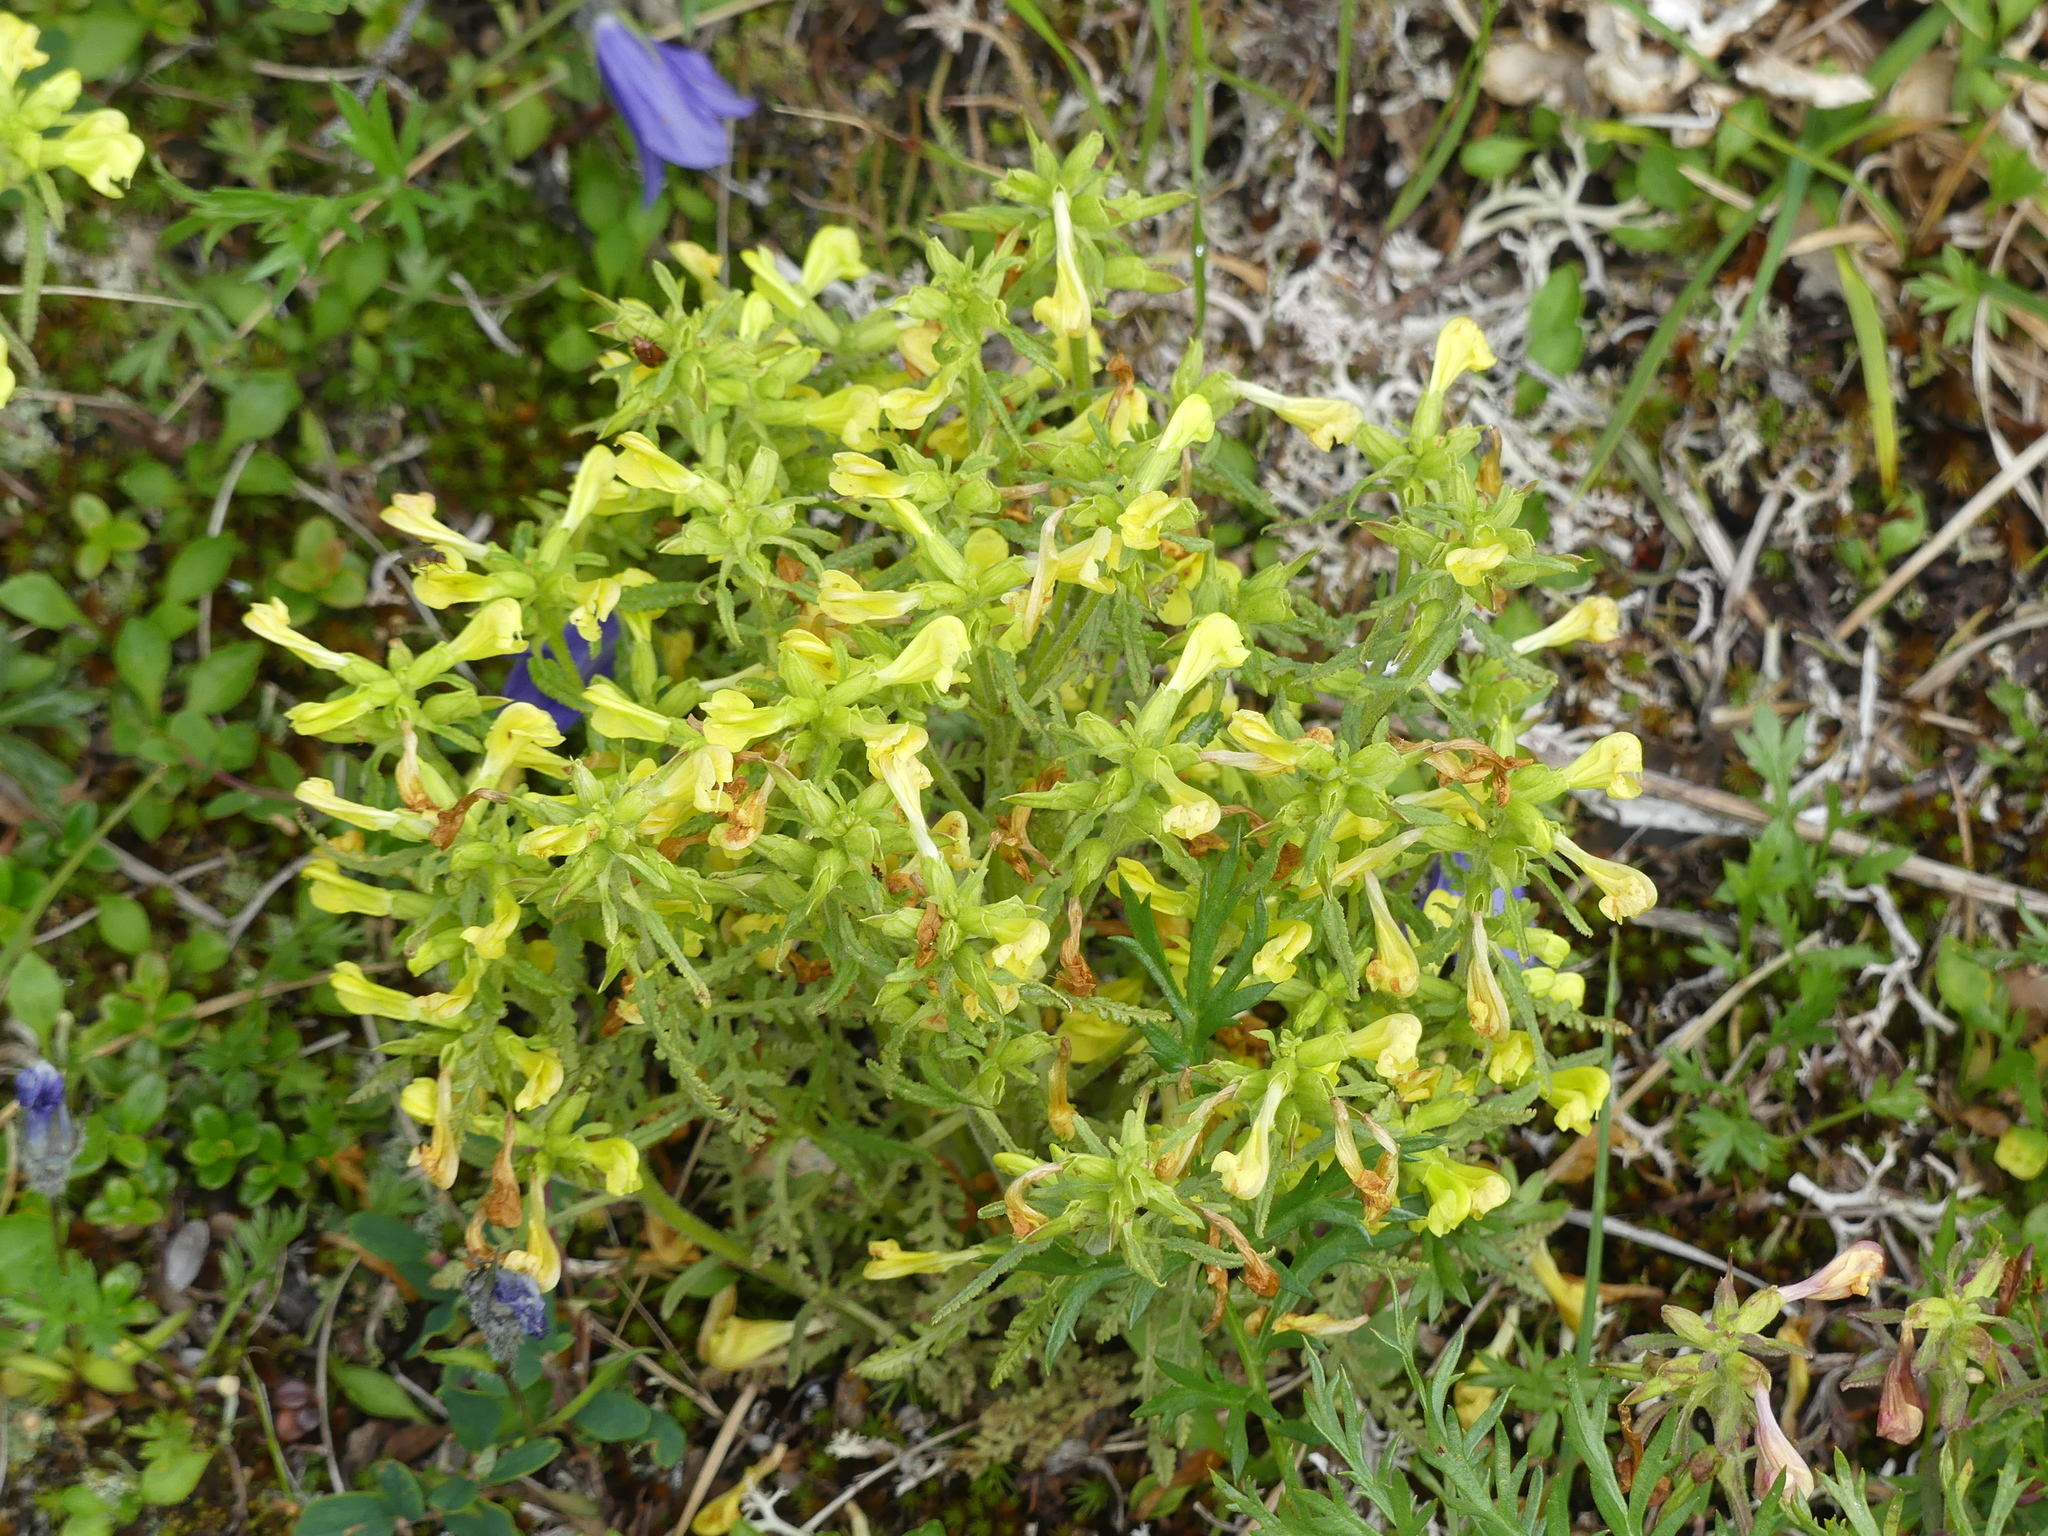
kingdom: Plantae
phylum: Tracheophyta
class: Magnoliopsida
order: Lamiales
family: Orobanchaceae
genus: Pedicularis
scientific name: Pedicularis labradorica
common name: Labrador lousewort
